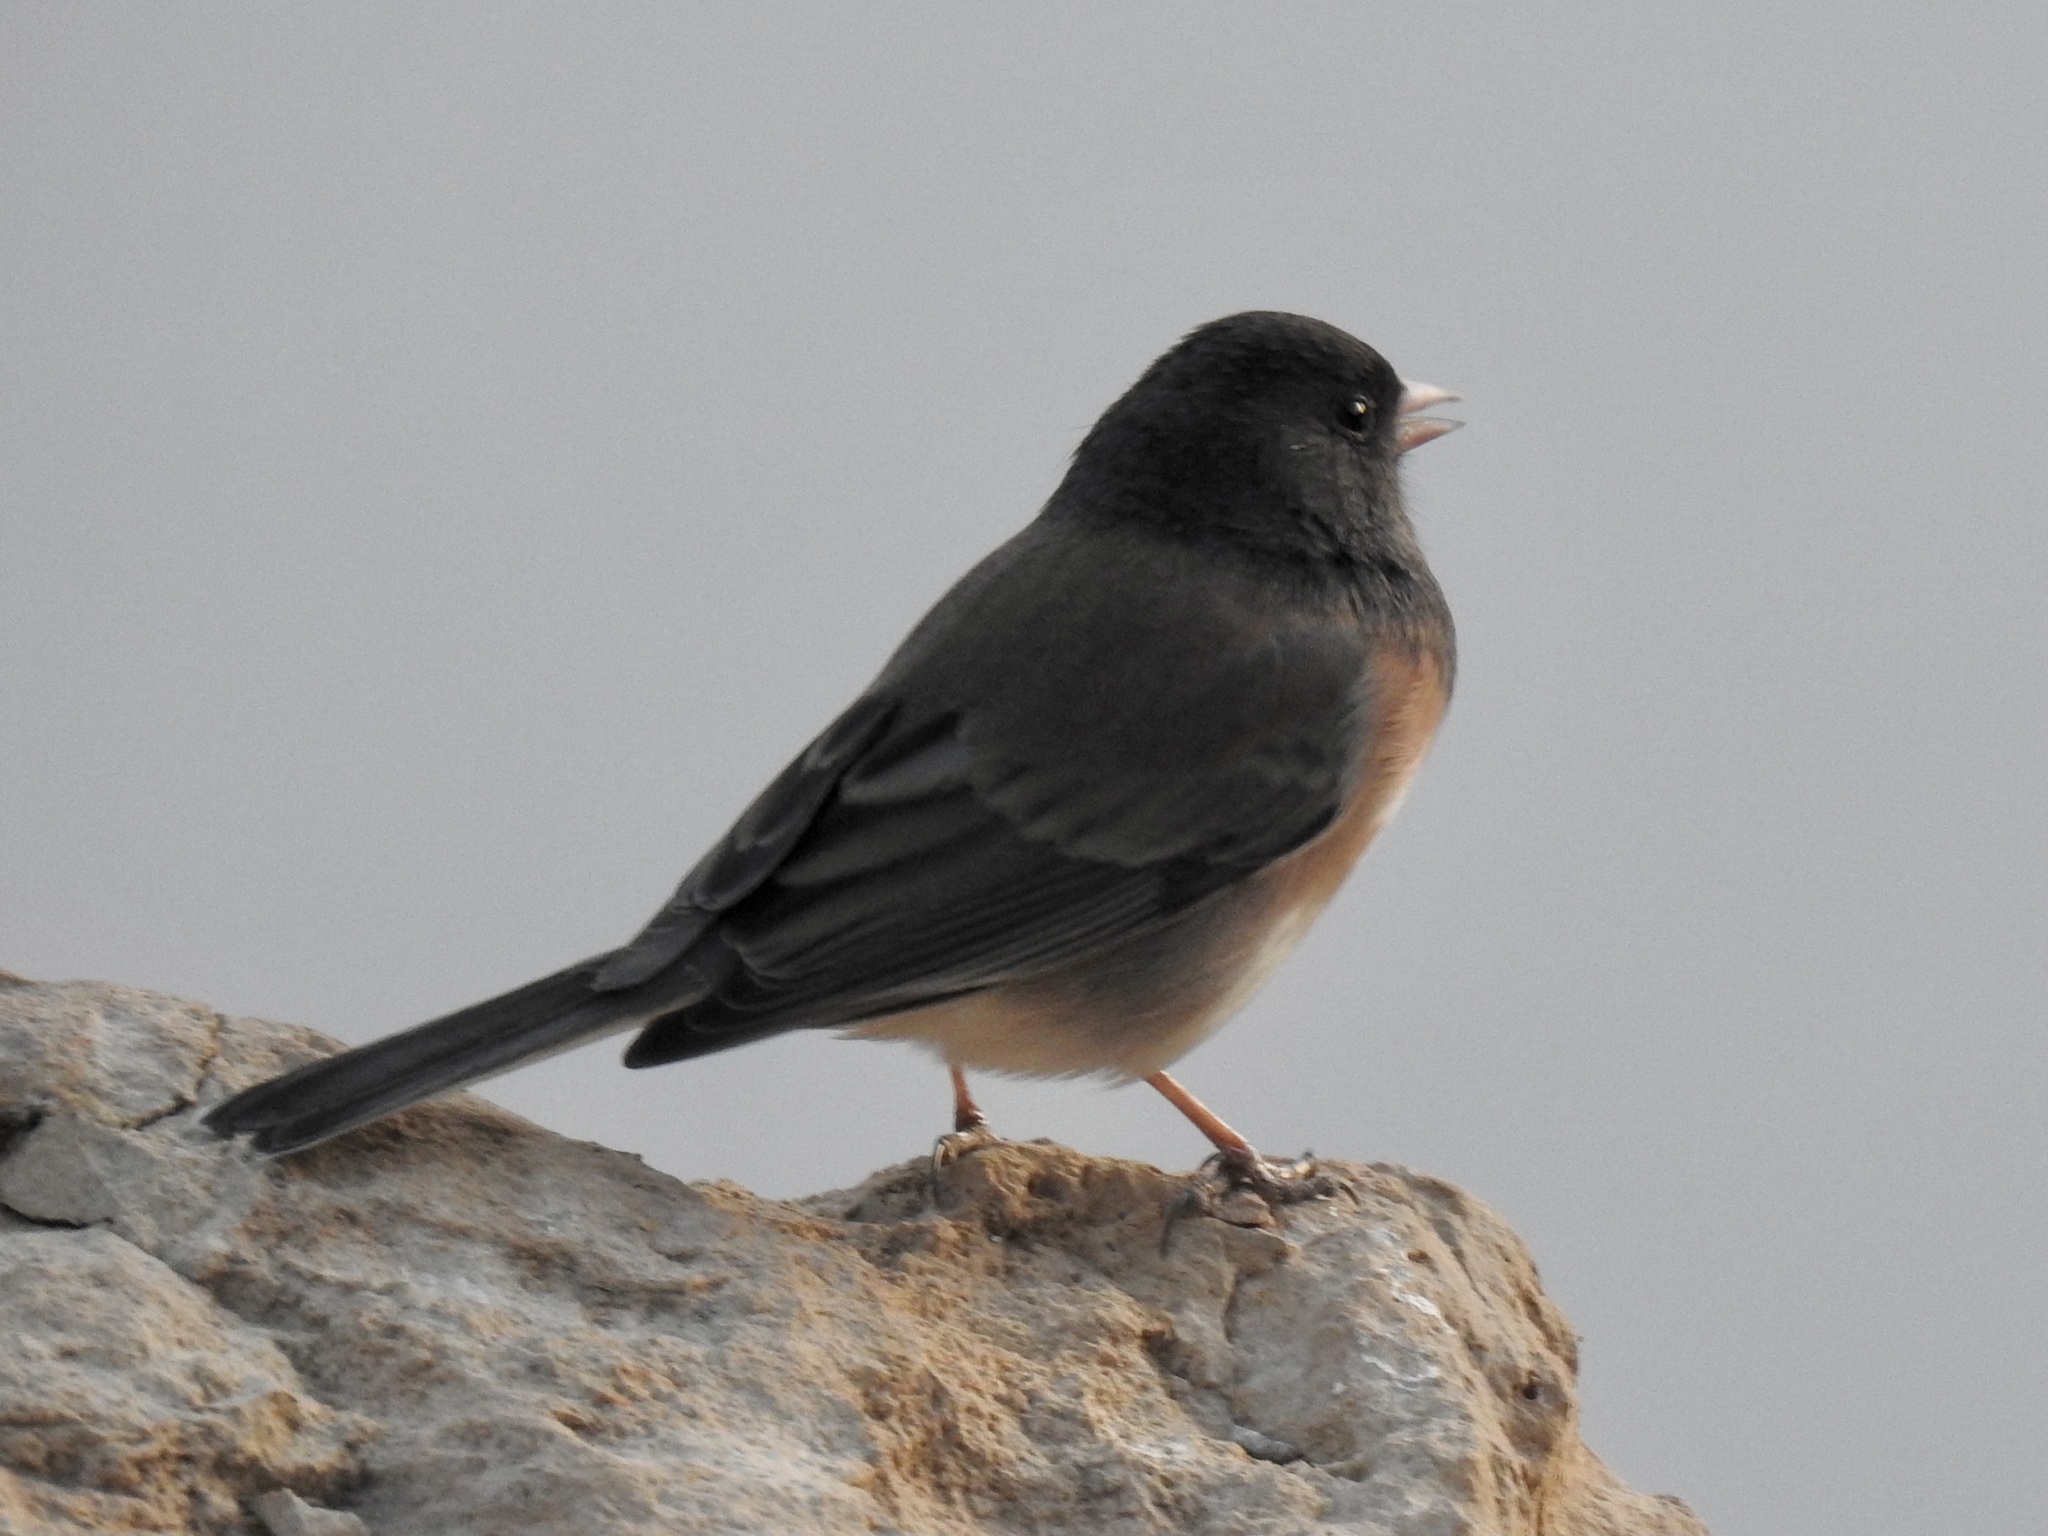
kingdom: Animalia
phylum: Chordata
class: Aves
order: Passeriformes
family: Passerellidae
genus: Junco
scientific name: Junco hyemalis
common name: Dark-eyed junco
